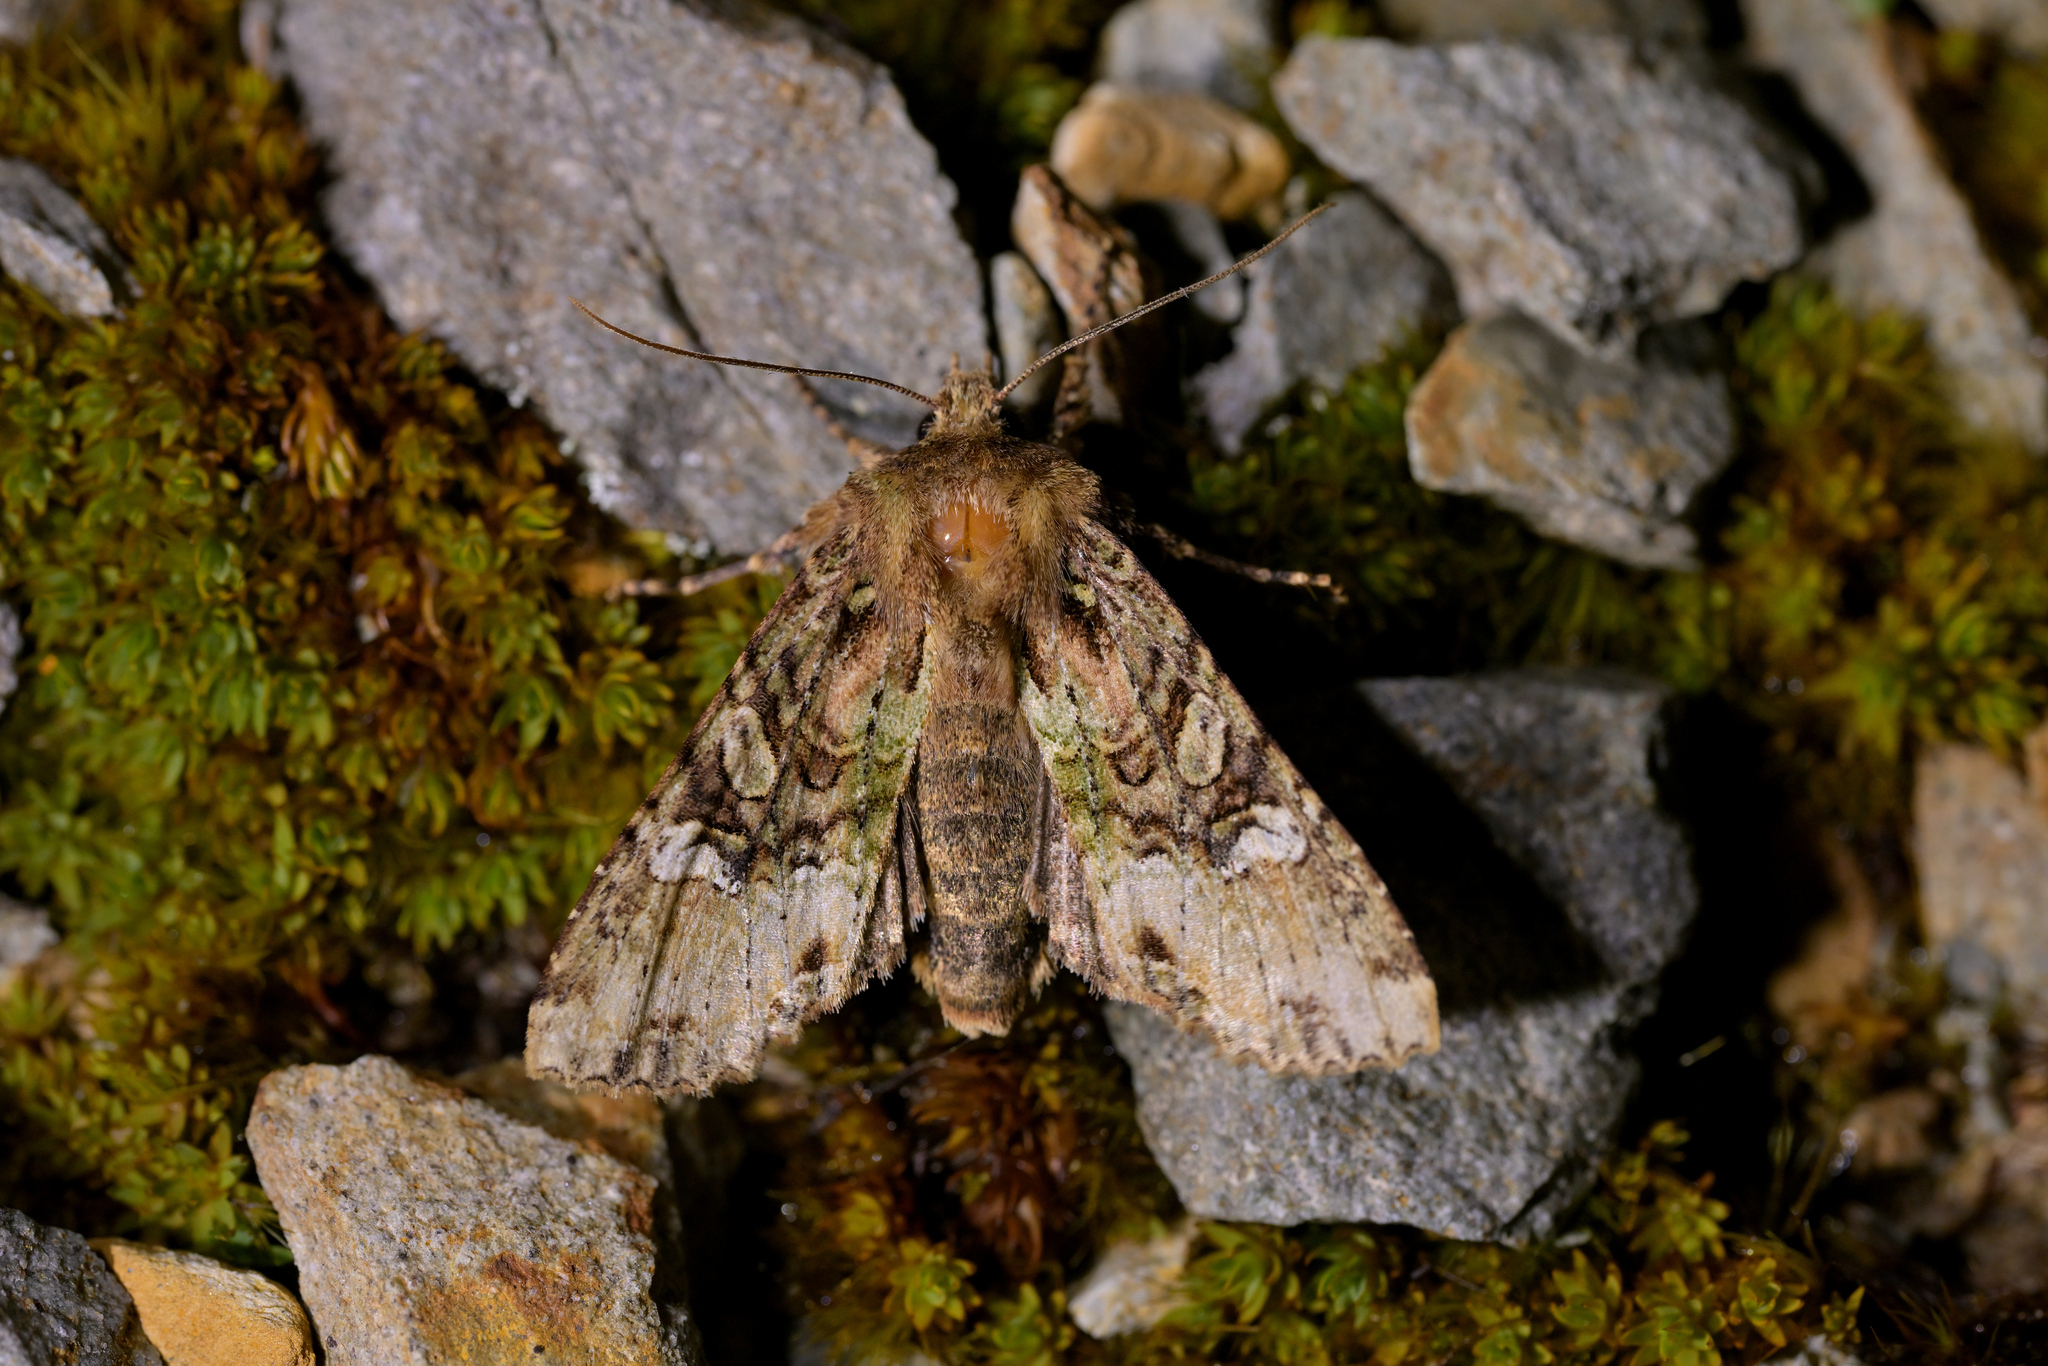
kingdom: Animalia
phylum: Arthropoda
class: Insecta
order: Lepidoptera
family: Noctuidae
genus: Meterana
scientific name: Meterana
